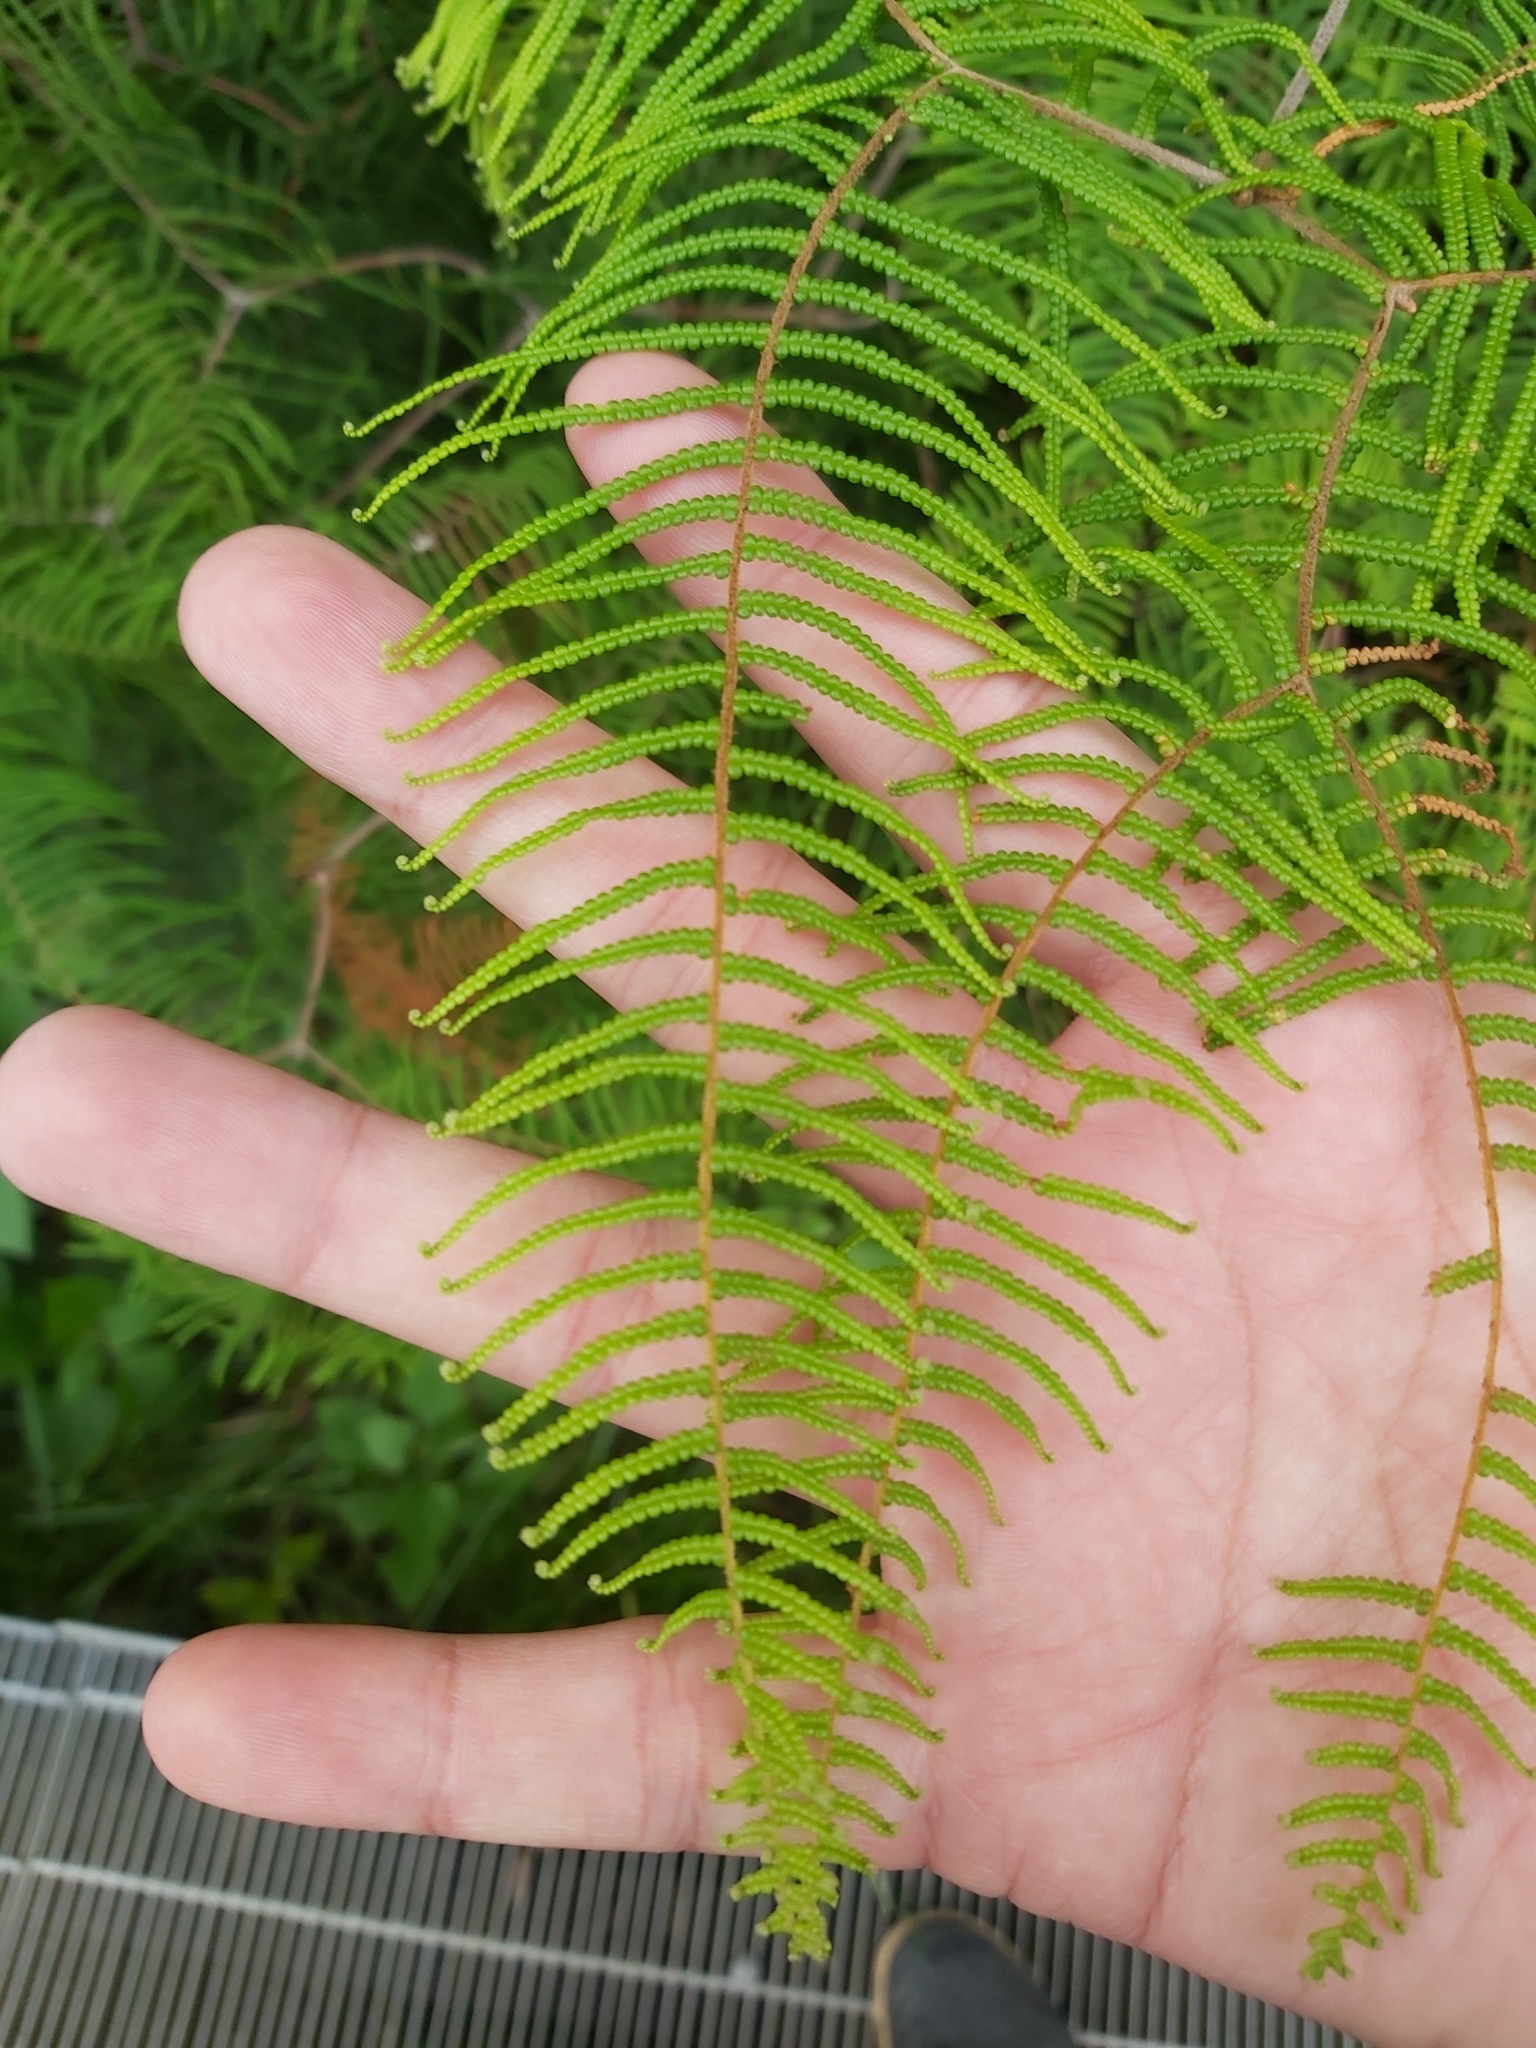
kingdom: Plantae
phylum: Tracheophyta
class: Polypodiopsida
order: Gleicheniales
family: Gleicheniaceae
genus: Gleichenia
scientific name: Gleichenia dicarpa
